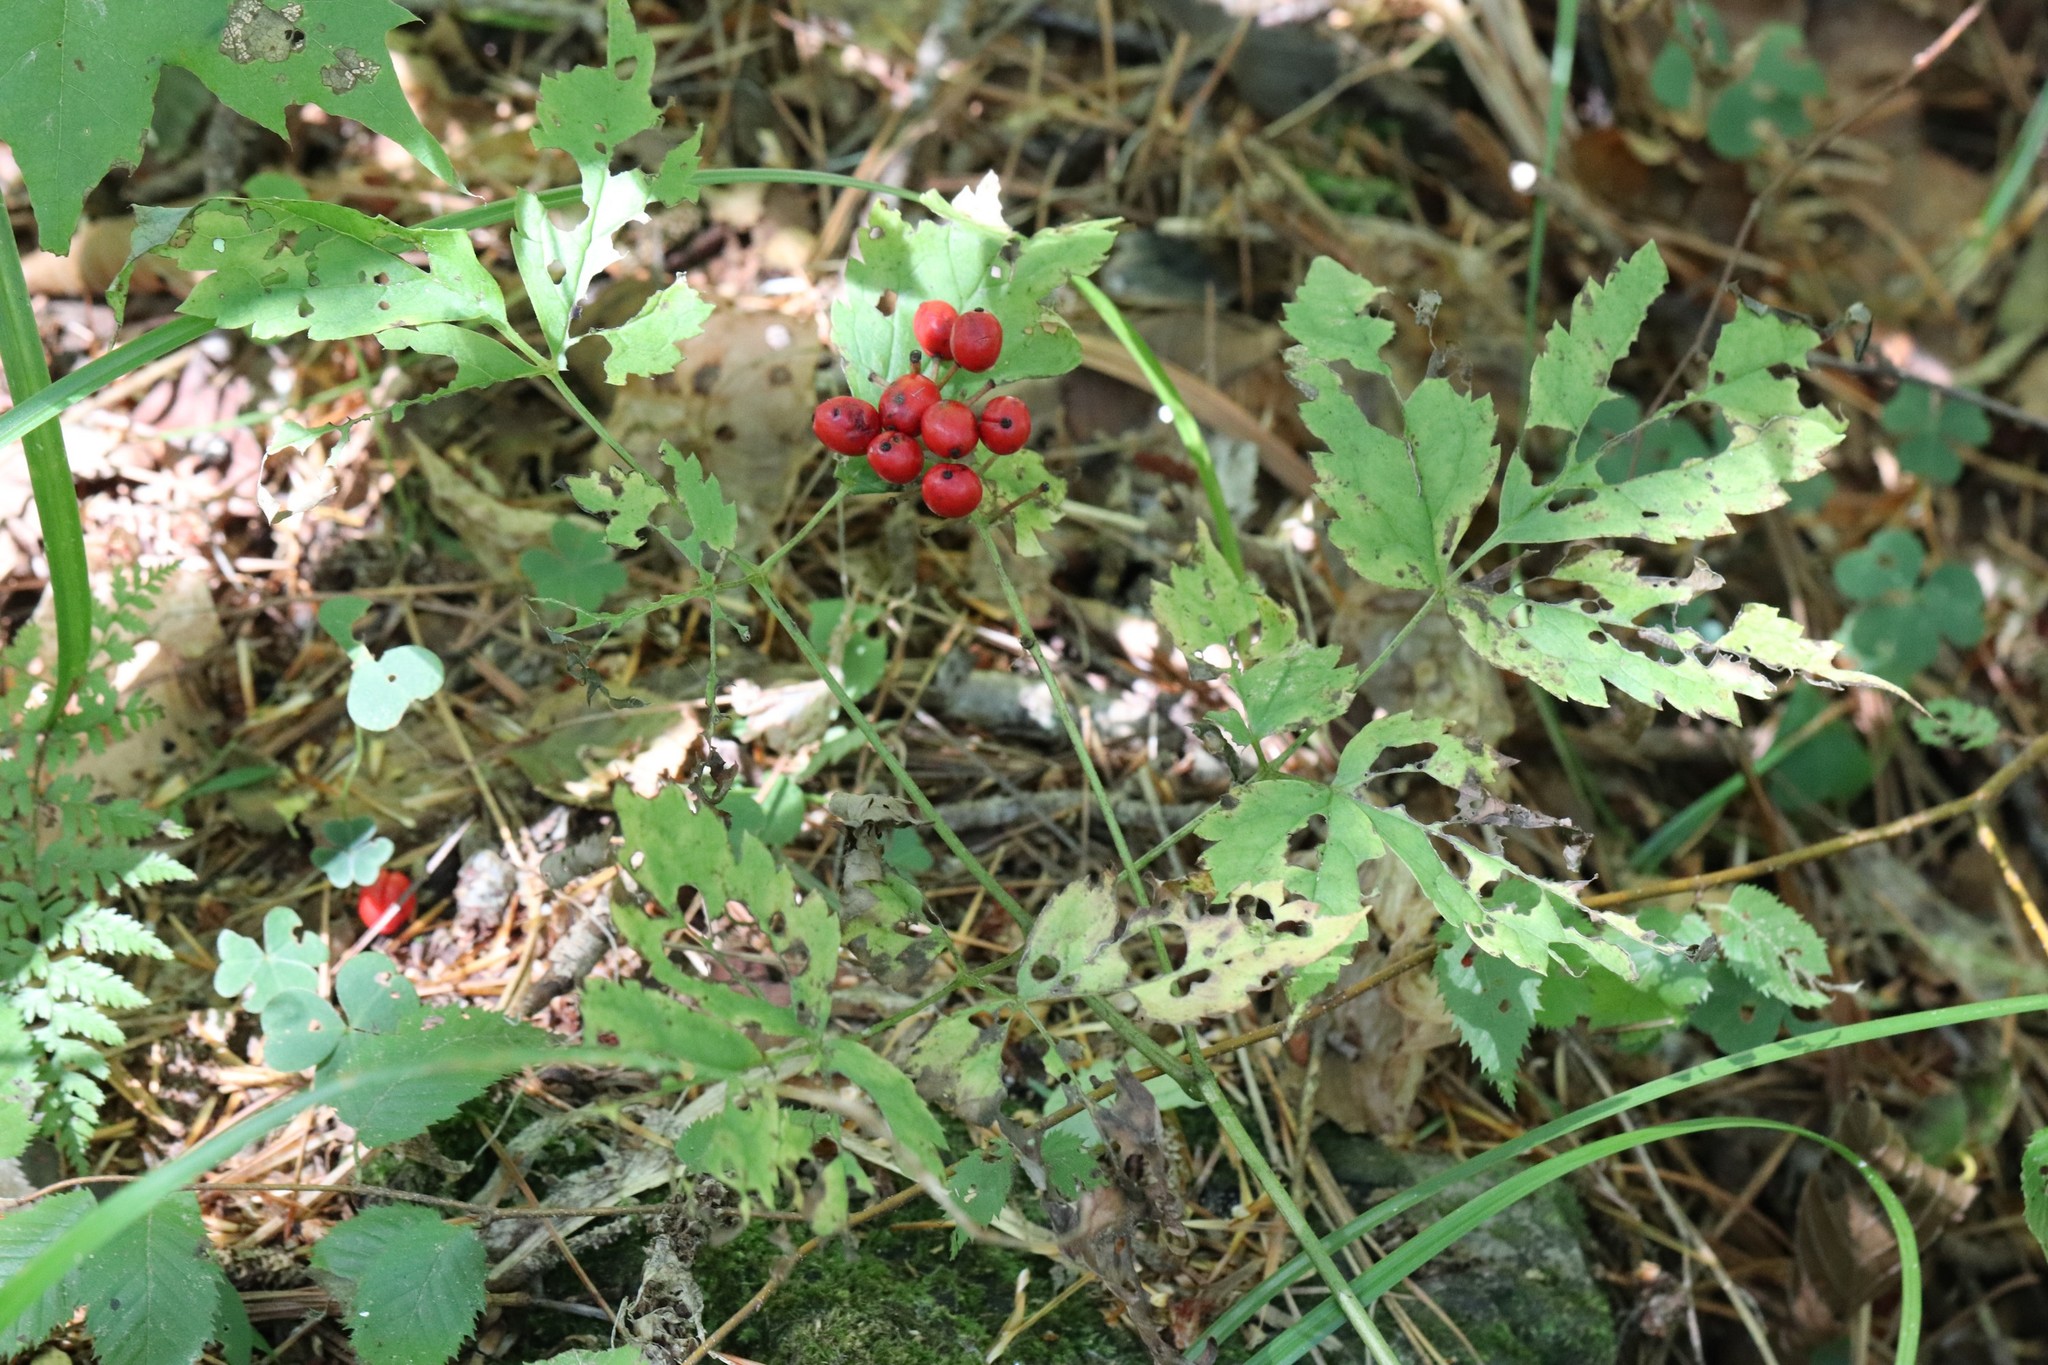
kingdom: Plantae
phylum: Tracheophyta
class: Magnoliopsida
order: Ranunculales
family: Ranunculaceae
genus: Actaea
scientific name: Actaea erythrocarpa
